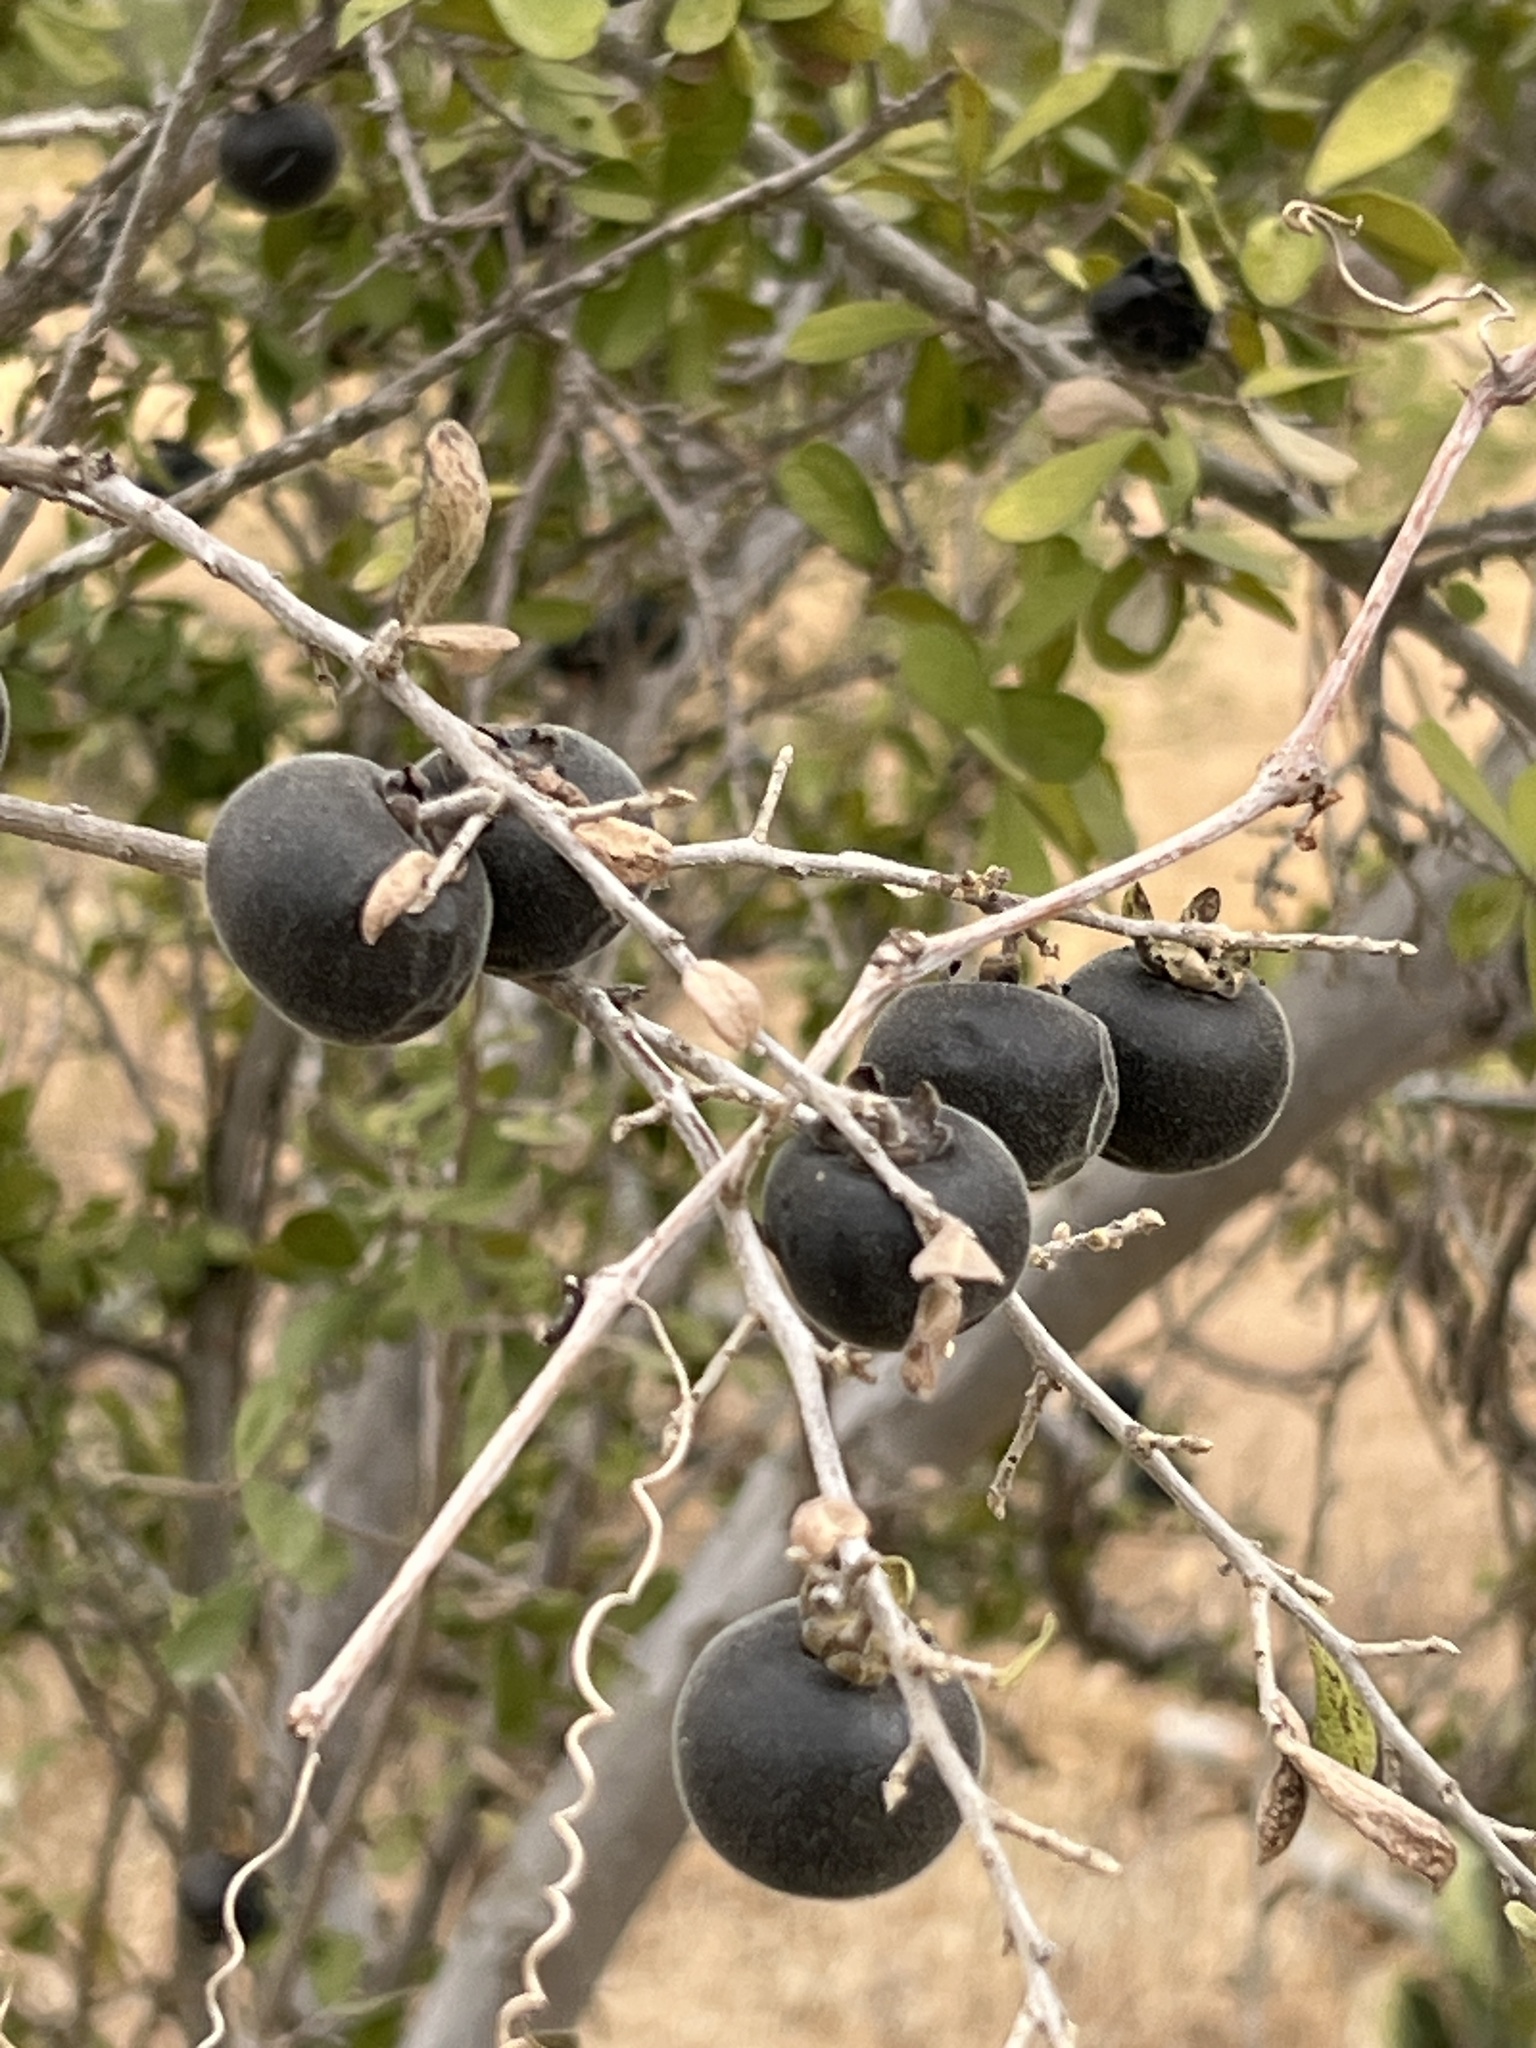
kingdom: Plantae
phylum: Tracheophyta
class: Magnoliopsida
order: Ericales
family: Ebenaceae
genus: Diospyros
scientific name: Diospyros texana
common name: Texas persimmon
